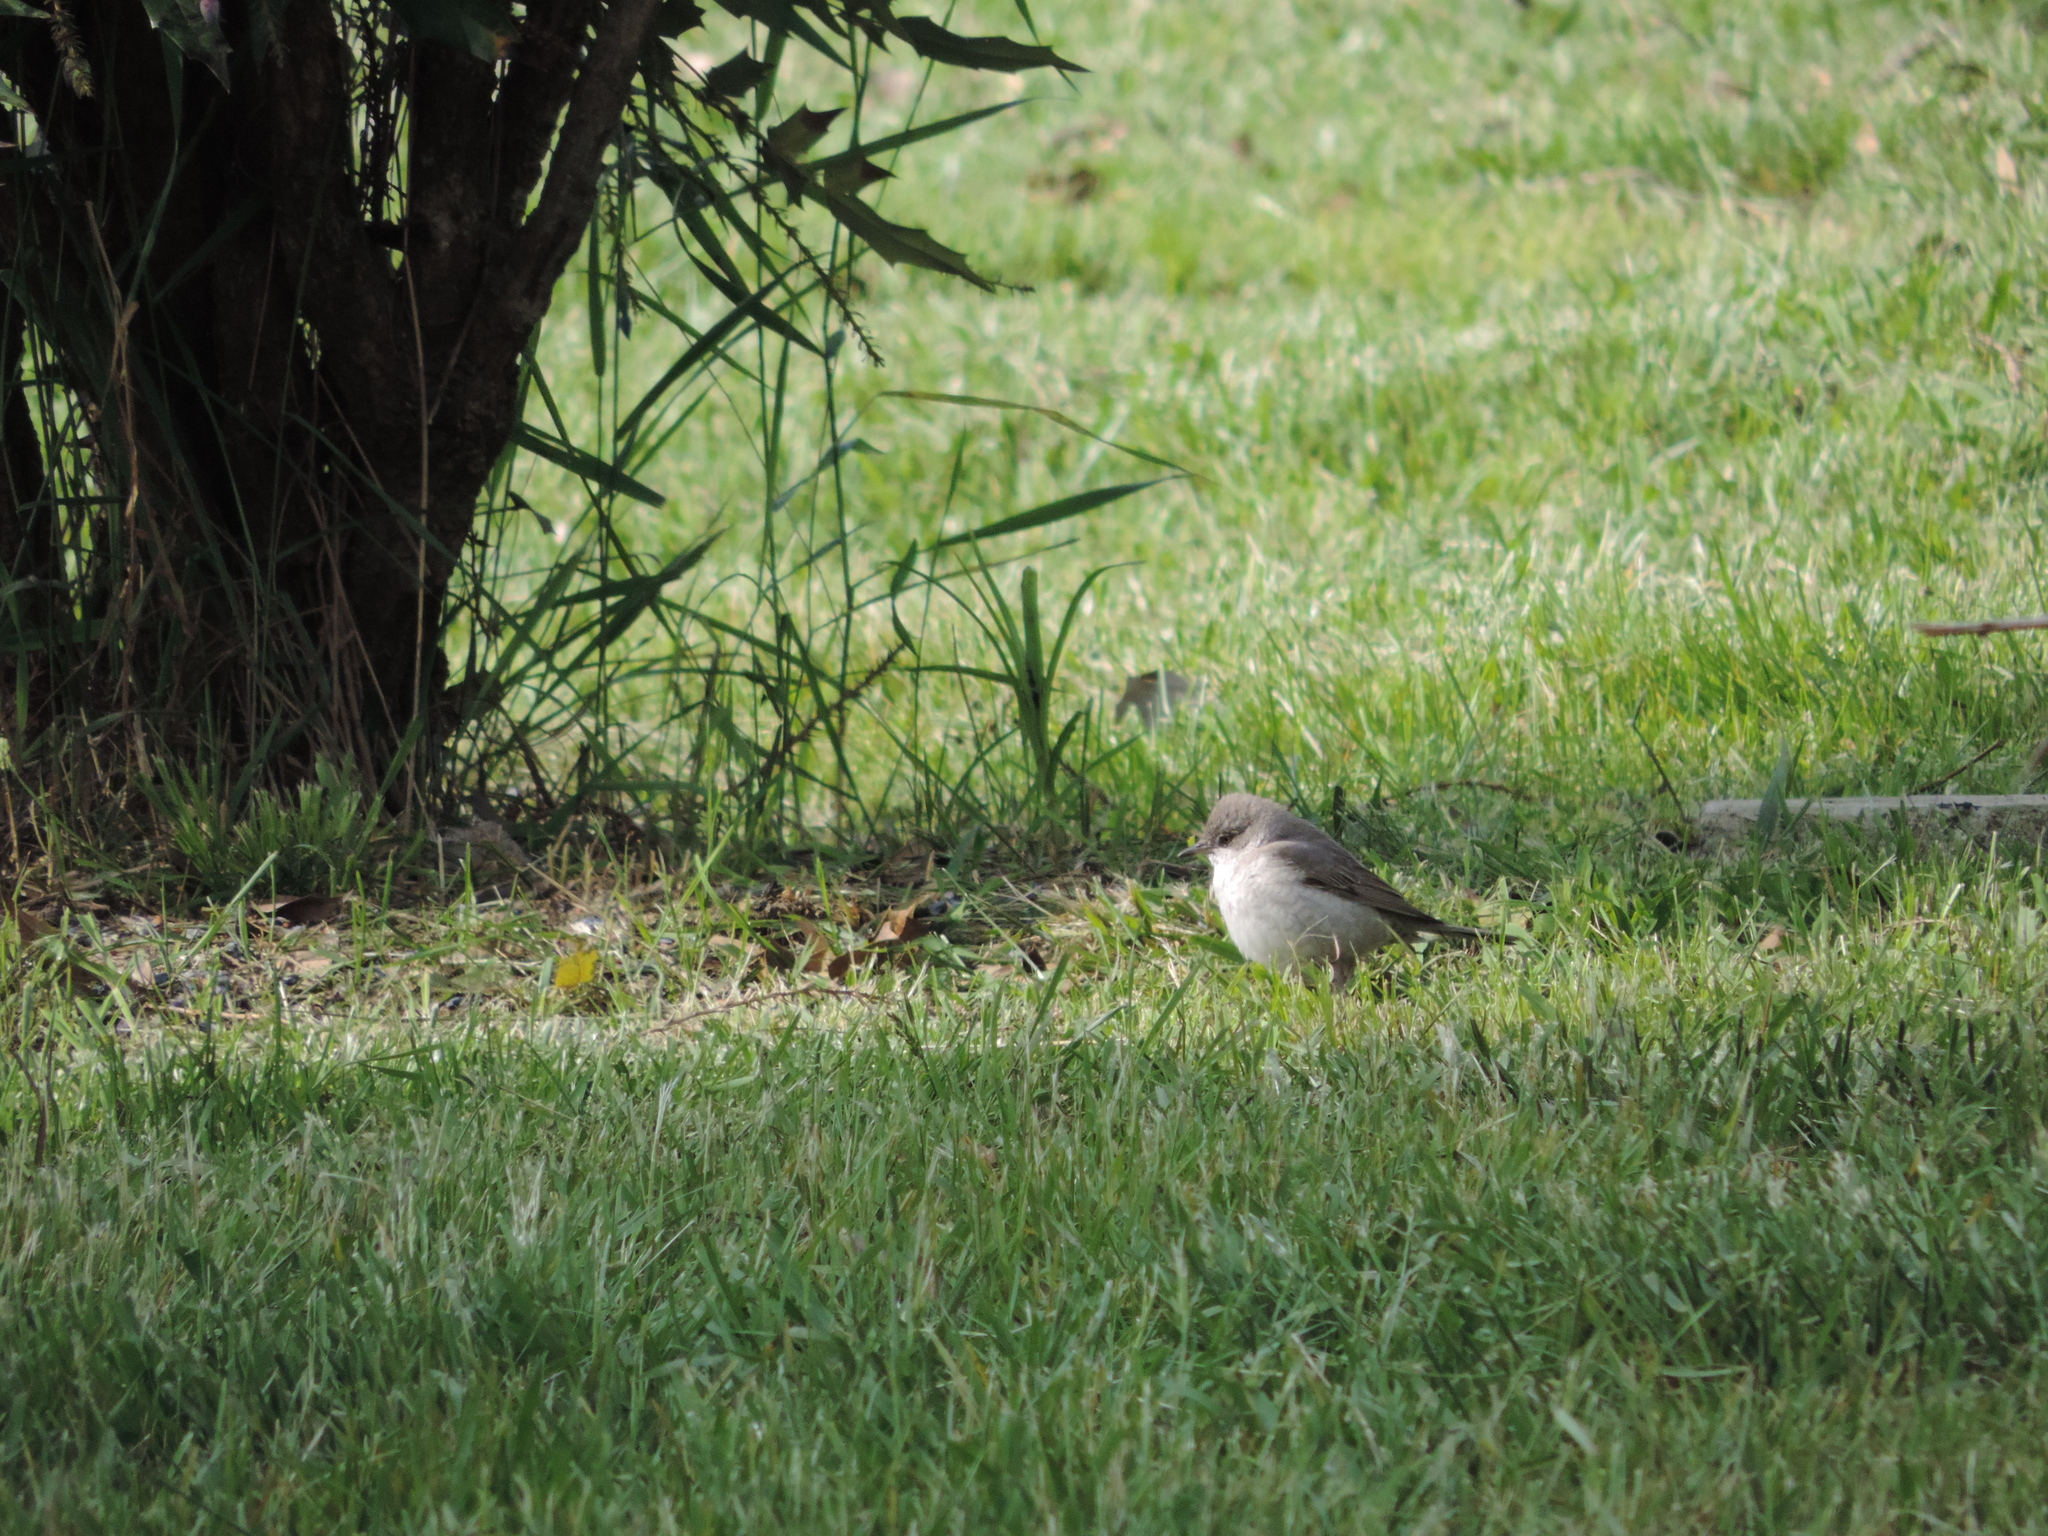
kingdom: Animalia
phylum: Chordata
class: Aves
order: Passeriformes
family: Sylviidae
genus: Sylvia
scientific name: Sylvia curruca
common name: Lesser whitethroat
